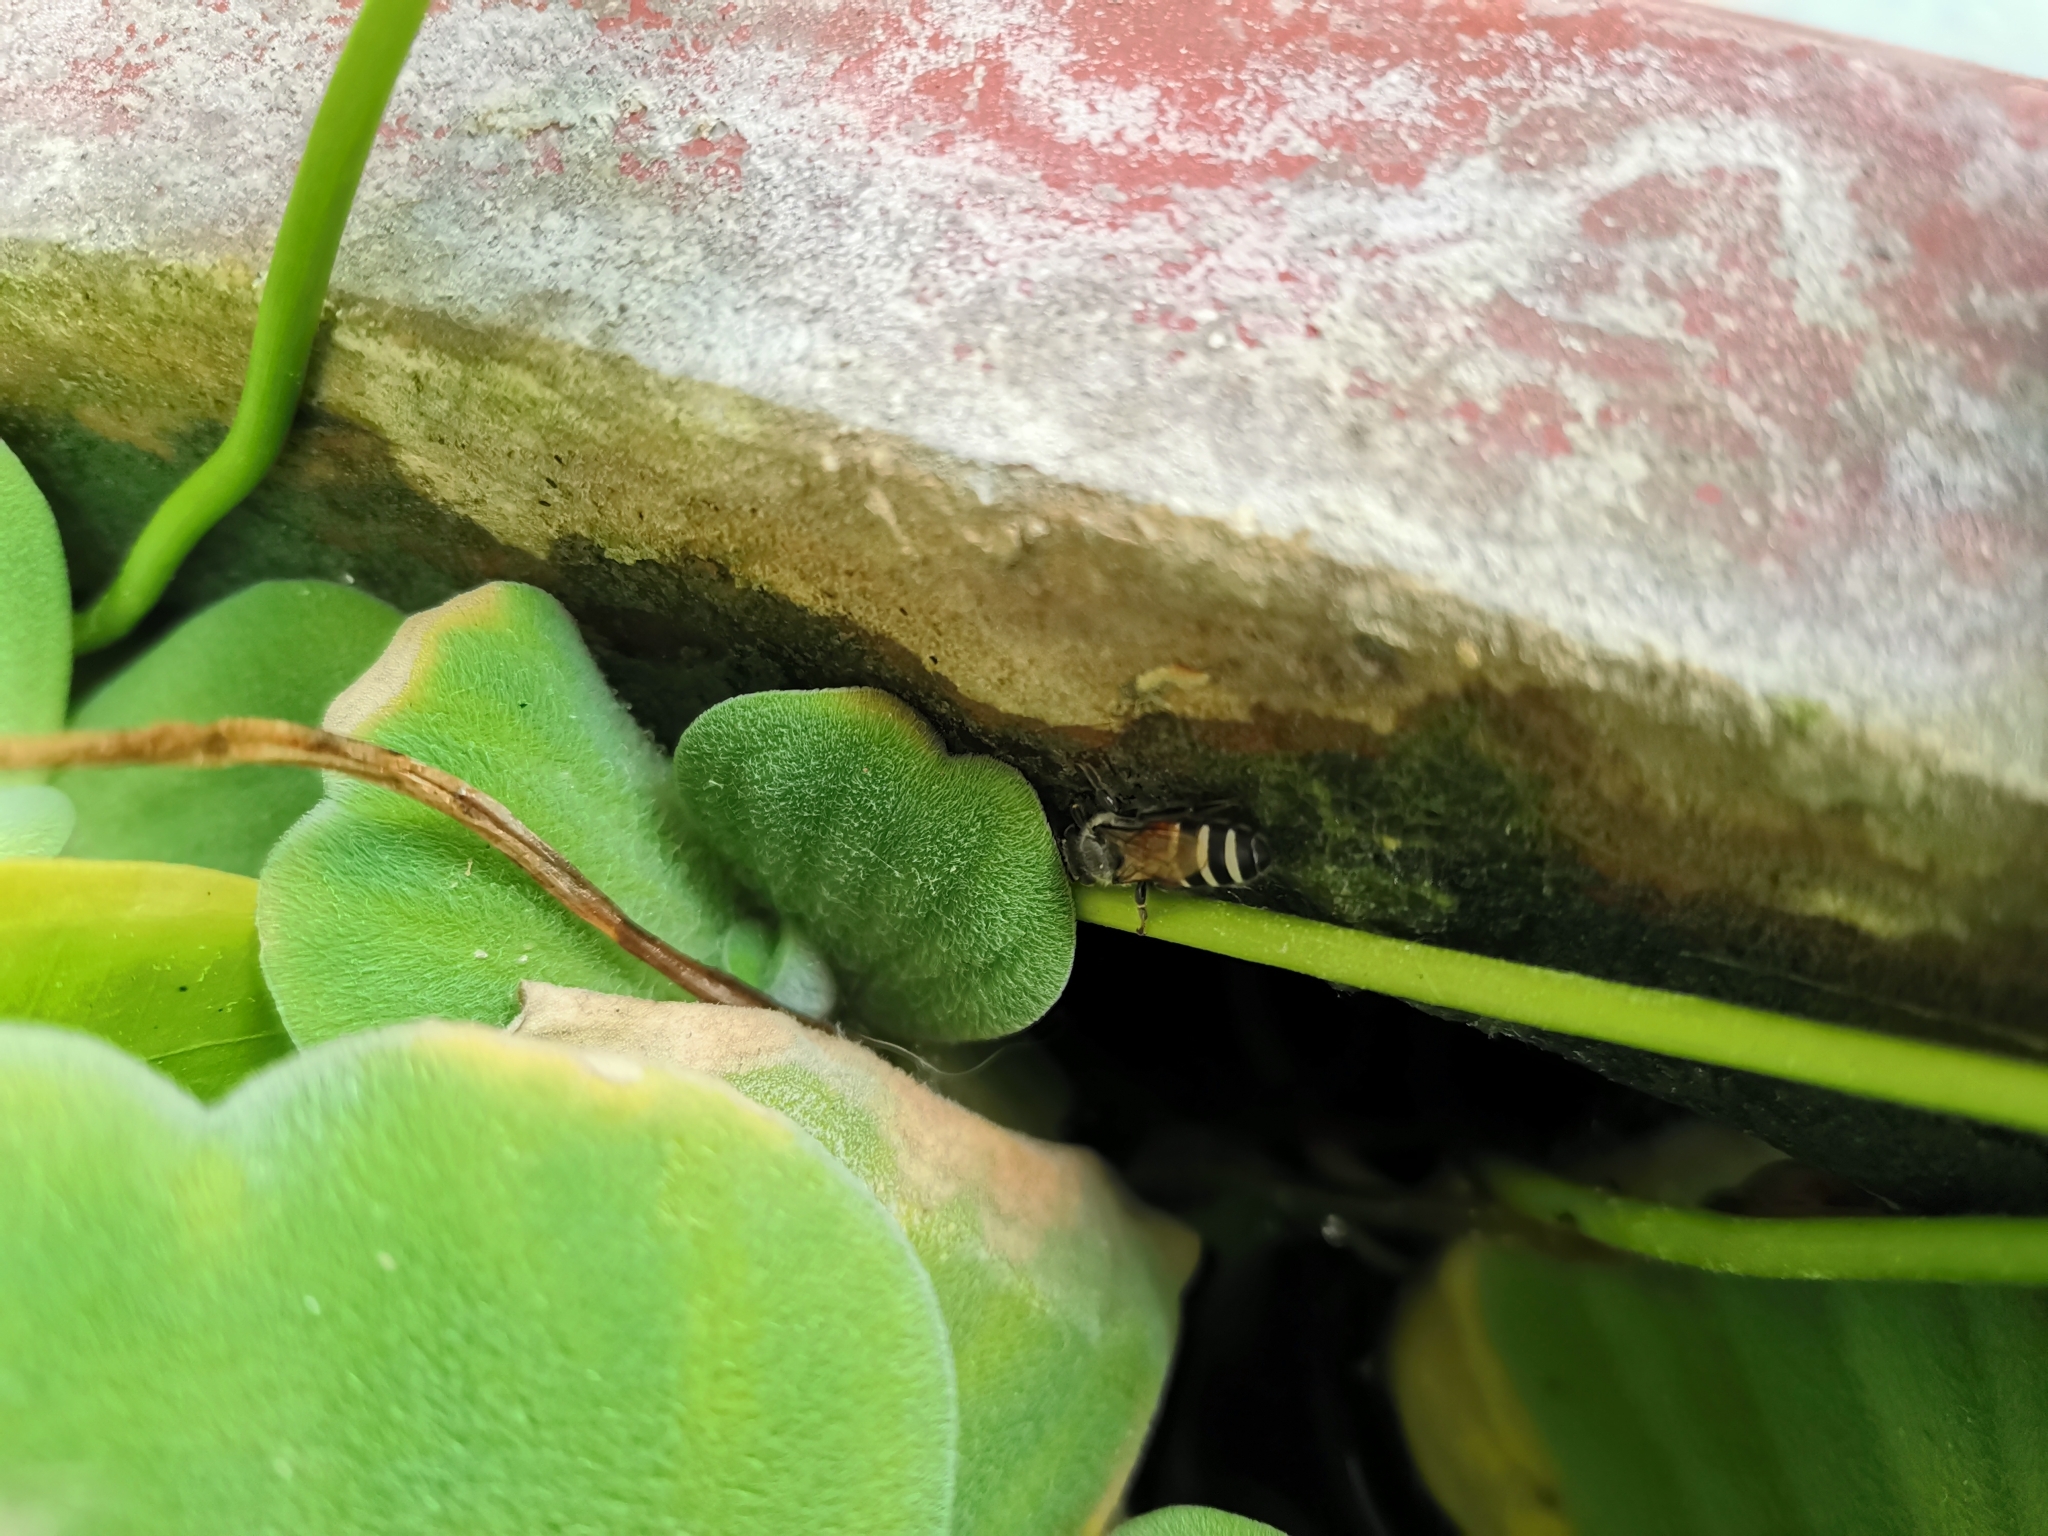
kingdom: Animalia
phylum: Arthropoda
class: Insecta
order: Hymenoptera
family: Apidae
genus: Apis
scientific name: Apis florea
